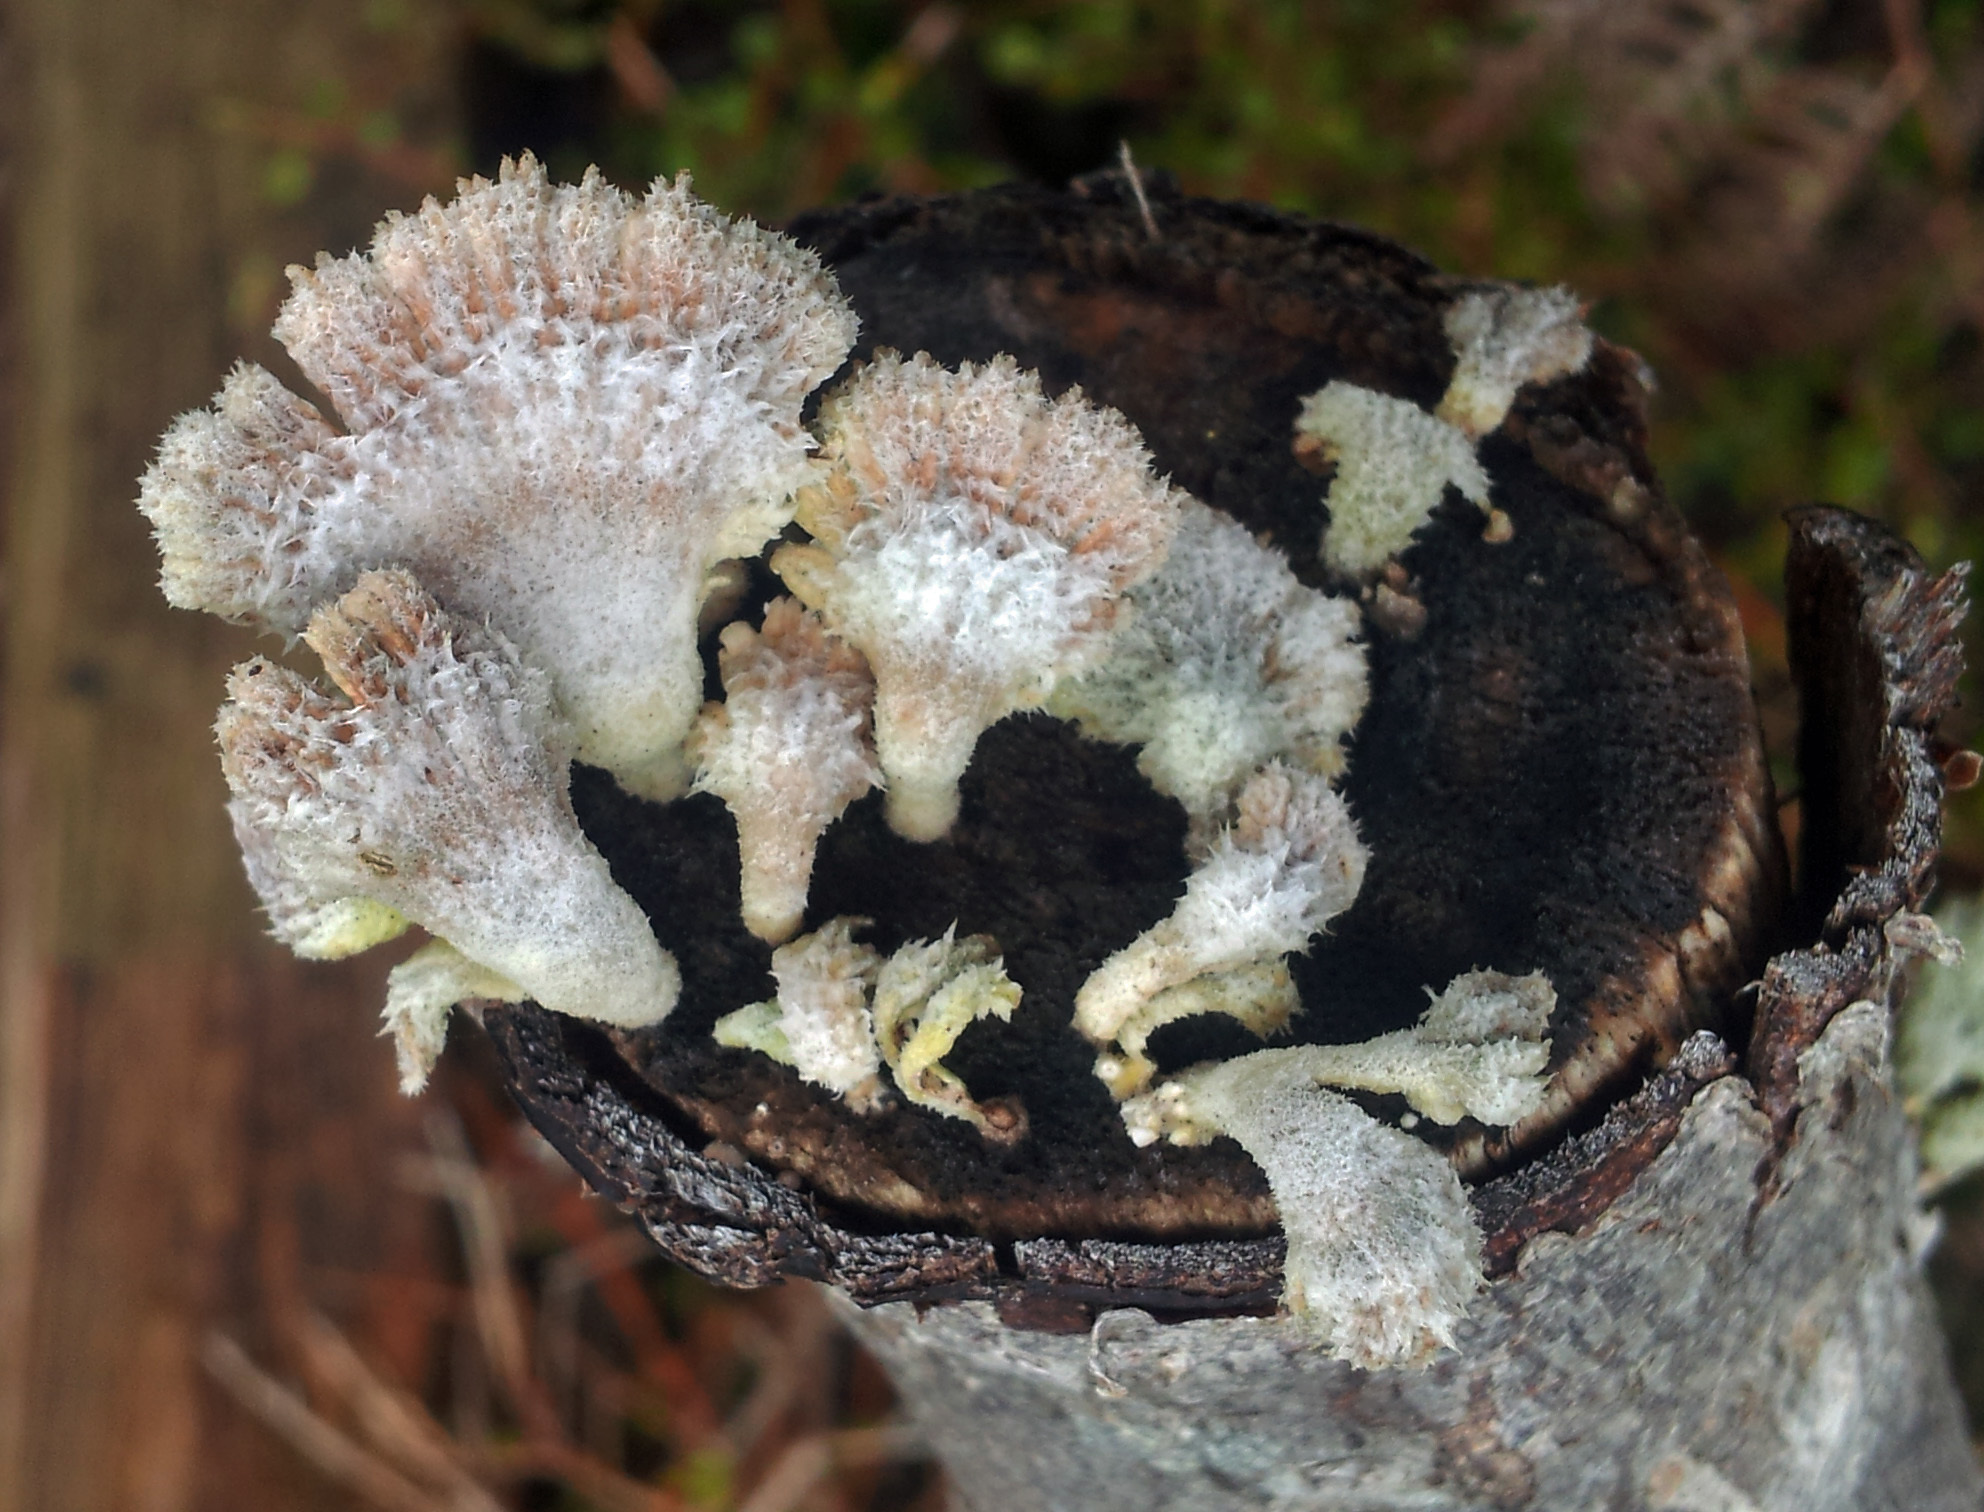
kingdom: Fungi
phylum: Basidiomycota
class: Agaricomycetes
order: Agaricales
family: Schizophyllaceae
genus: Schizophyllum
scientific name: Schizophyllum commune
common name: Common porecrust
